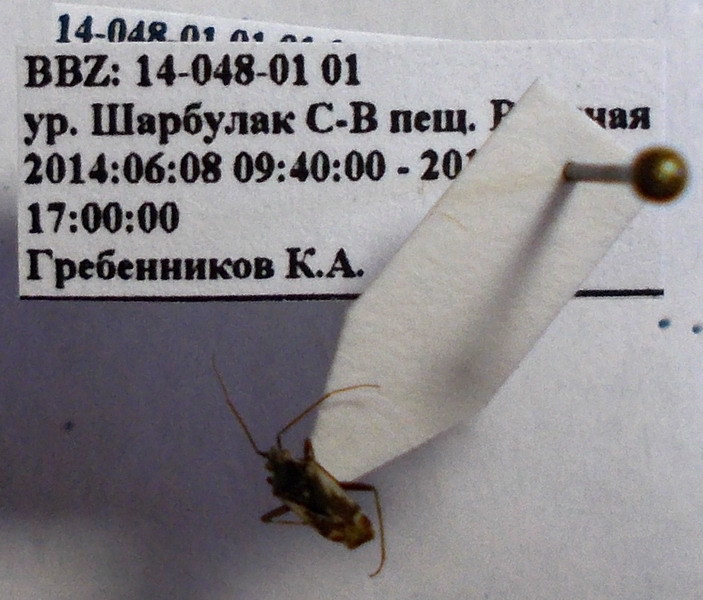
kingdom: Animalia
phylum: Arthropoda
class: Insecta
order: Hemiptera
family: Miridae
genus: Polymerus
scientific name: Polymerus cognatus
